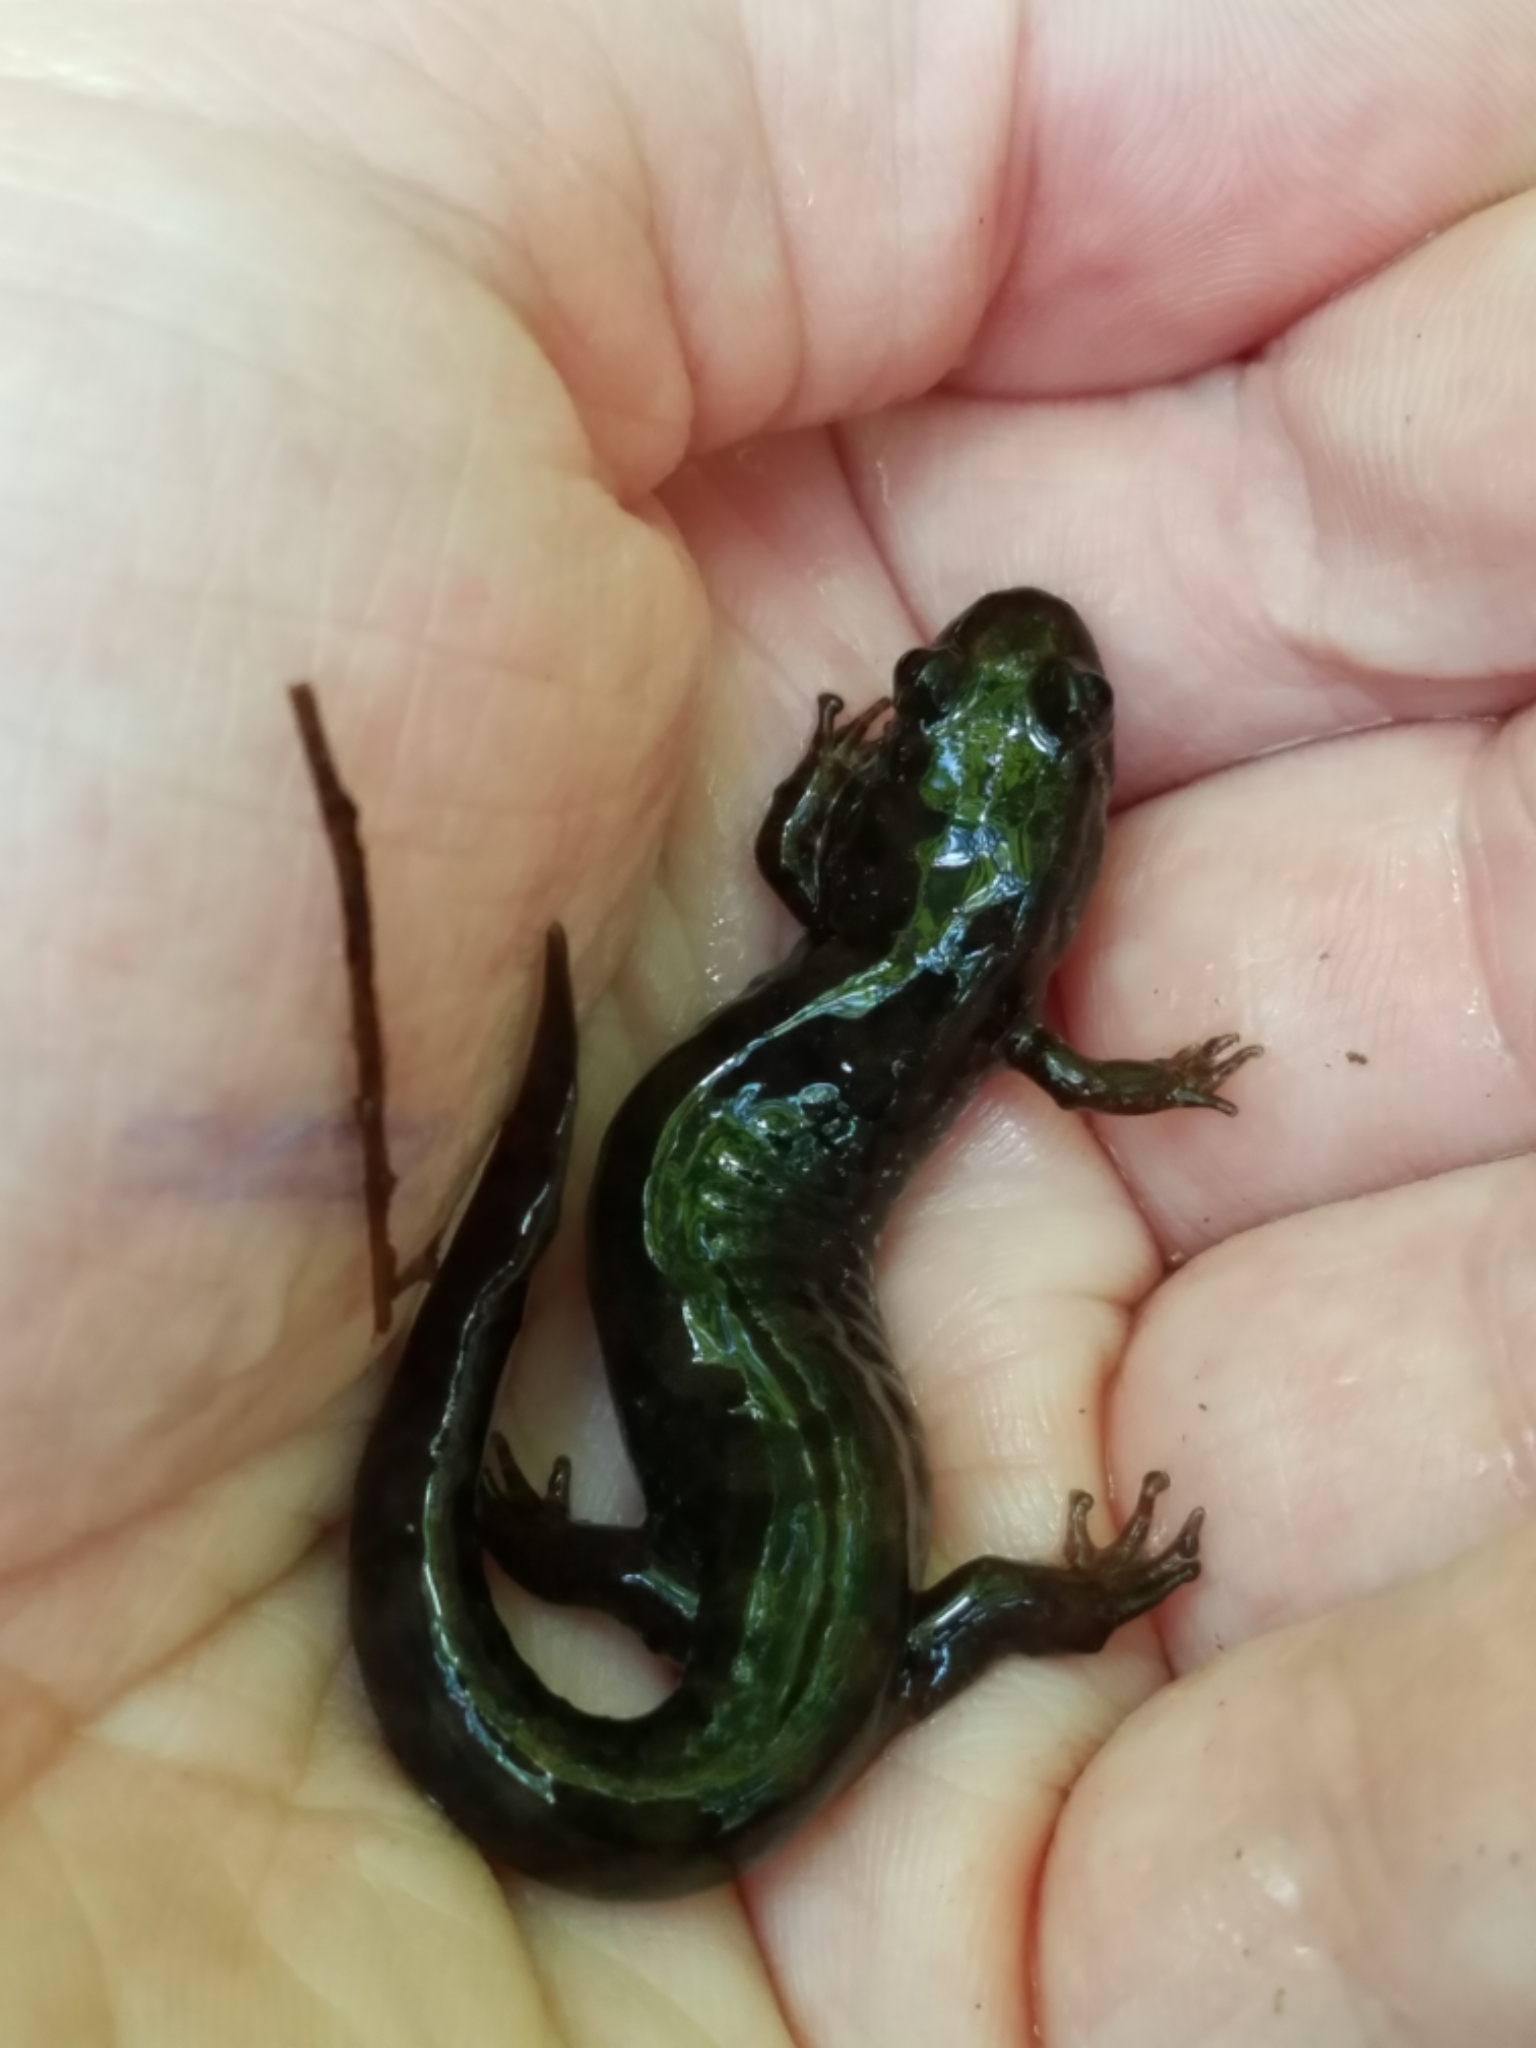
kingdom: Animalia
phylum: Chordata
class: Amphibia
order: Caudata
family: Plethodontidae
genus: Desmognathus
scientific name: Desmognathus monticola
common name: Seal salamander
